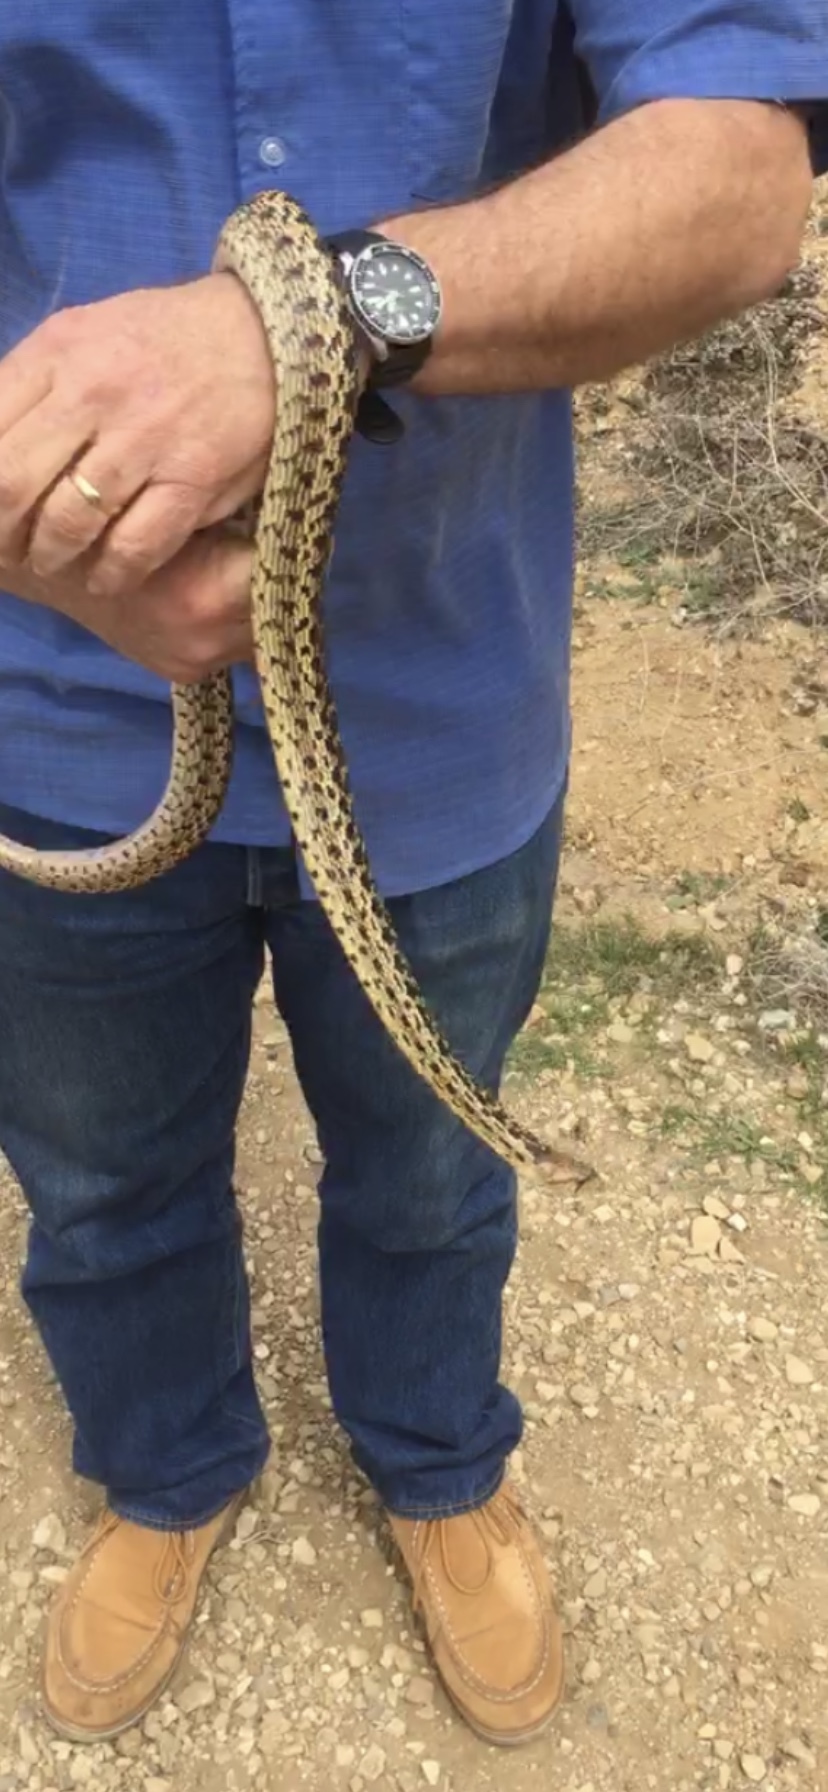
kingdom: Animalia
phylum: Chordata
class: Squamata
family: Colubridae
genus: Pituophis
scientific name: Pituophis catenifer
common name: Gopher snake
